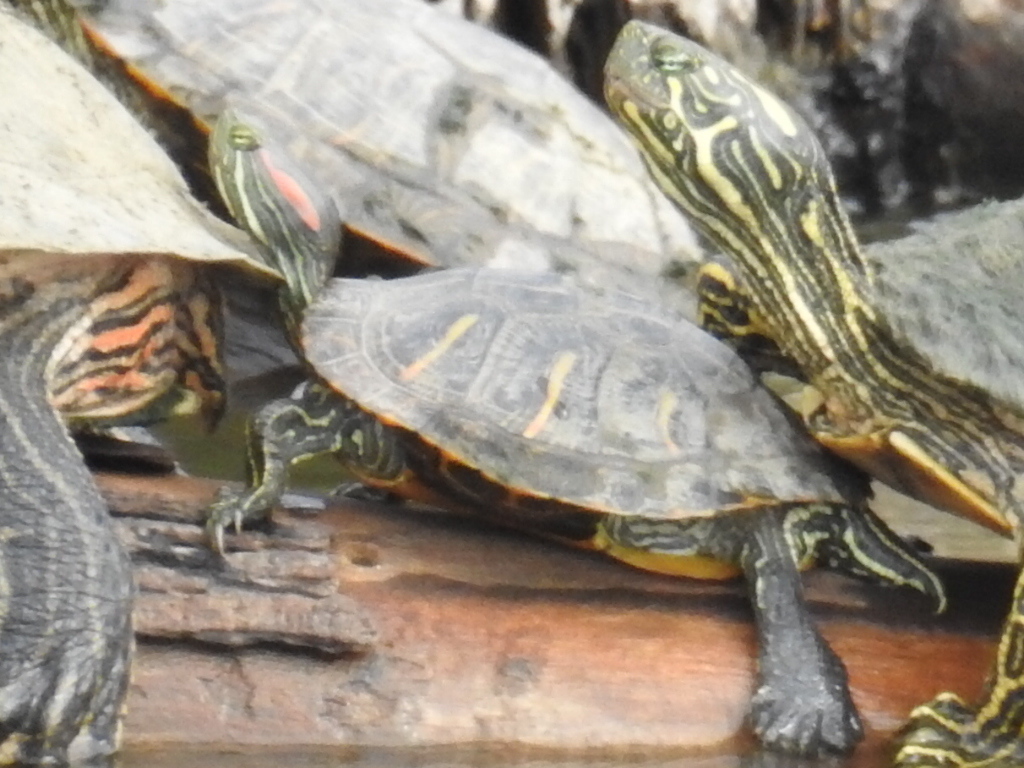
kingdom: Animalia
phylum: Chordata
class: Testudines
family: Emydidae
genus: Trachemys
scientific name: Trachemys scripta
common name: Slider
